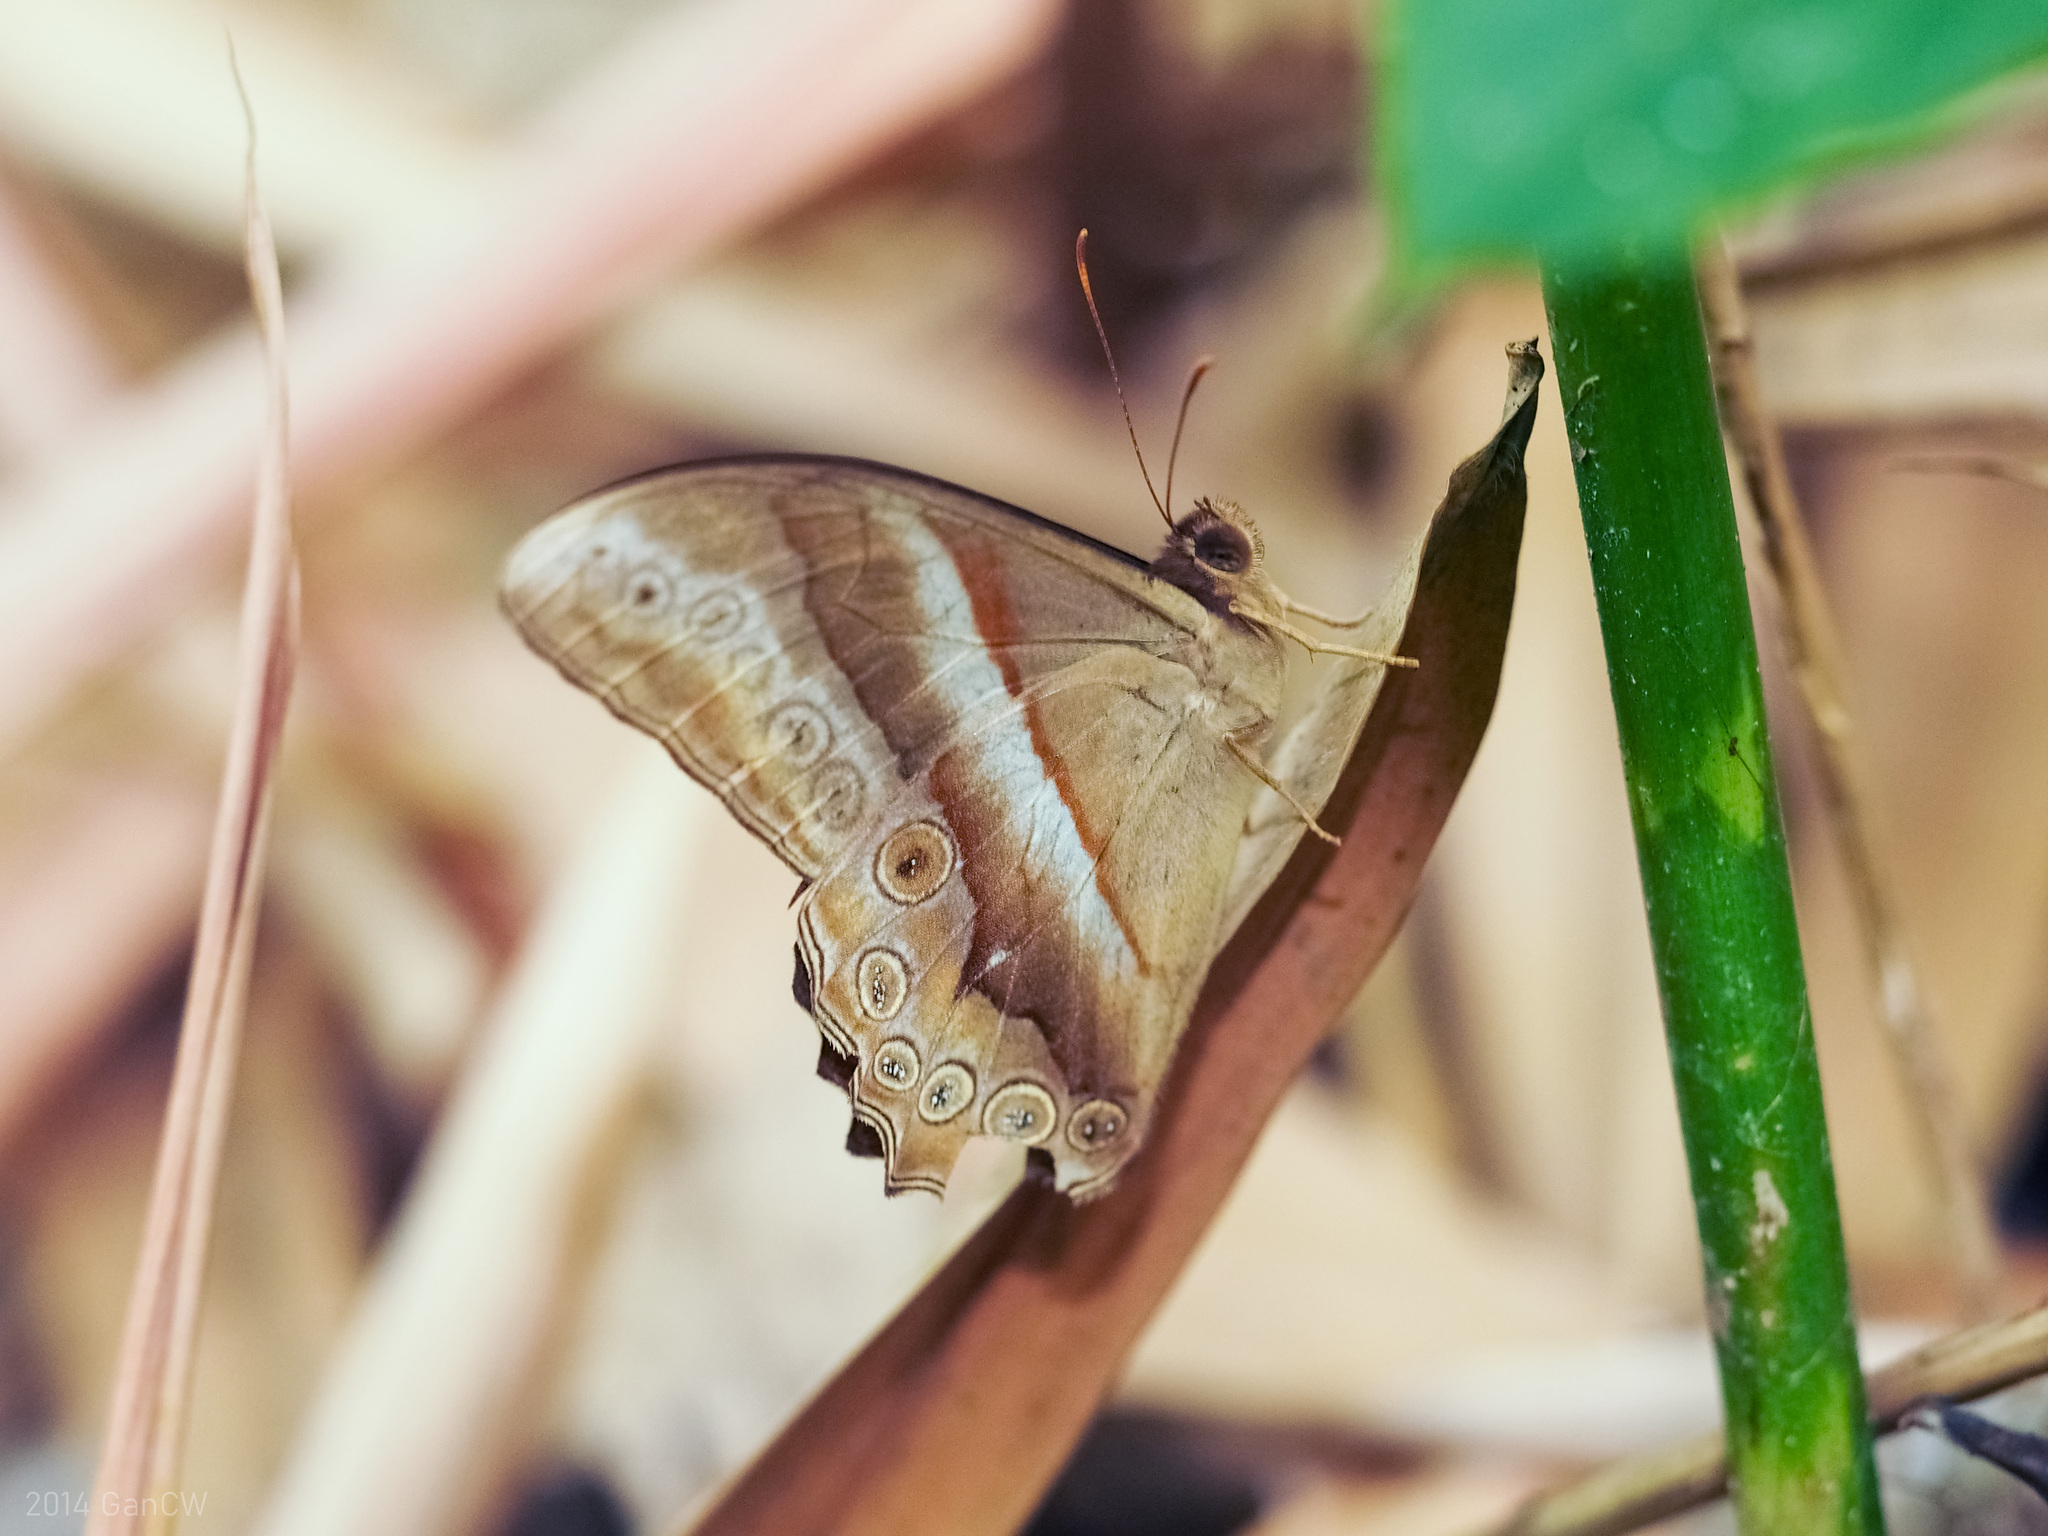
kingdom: Animalia
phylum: Arthropoda
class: Insecta
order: Lepidoptera
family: Nymphalidae
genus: Lethe
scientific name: Lethe mekara
